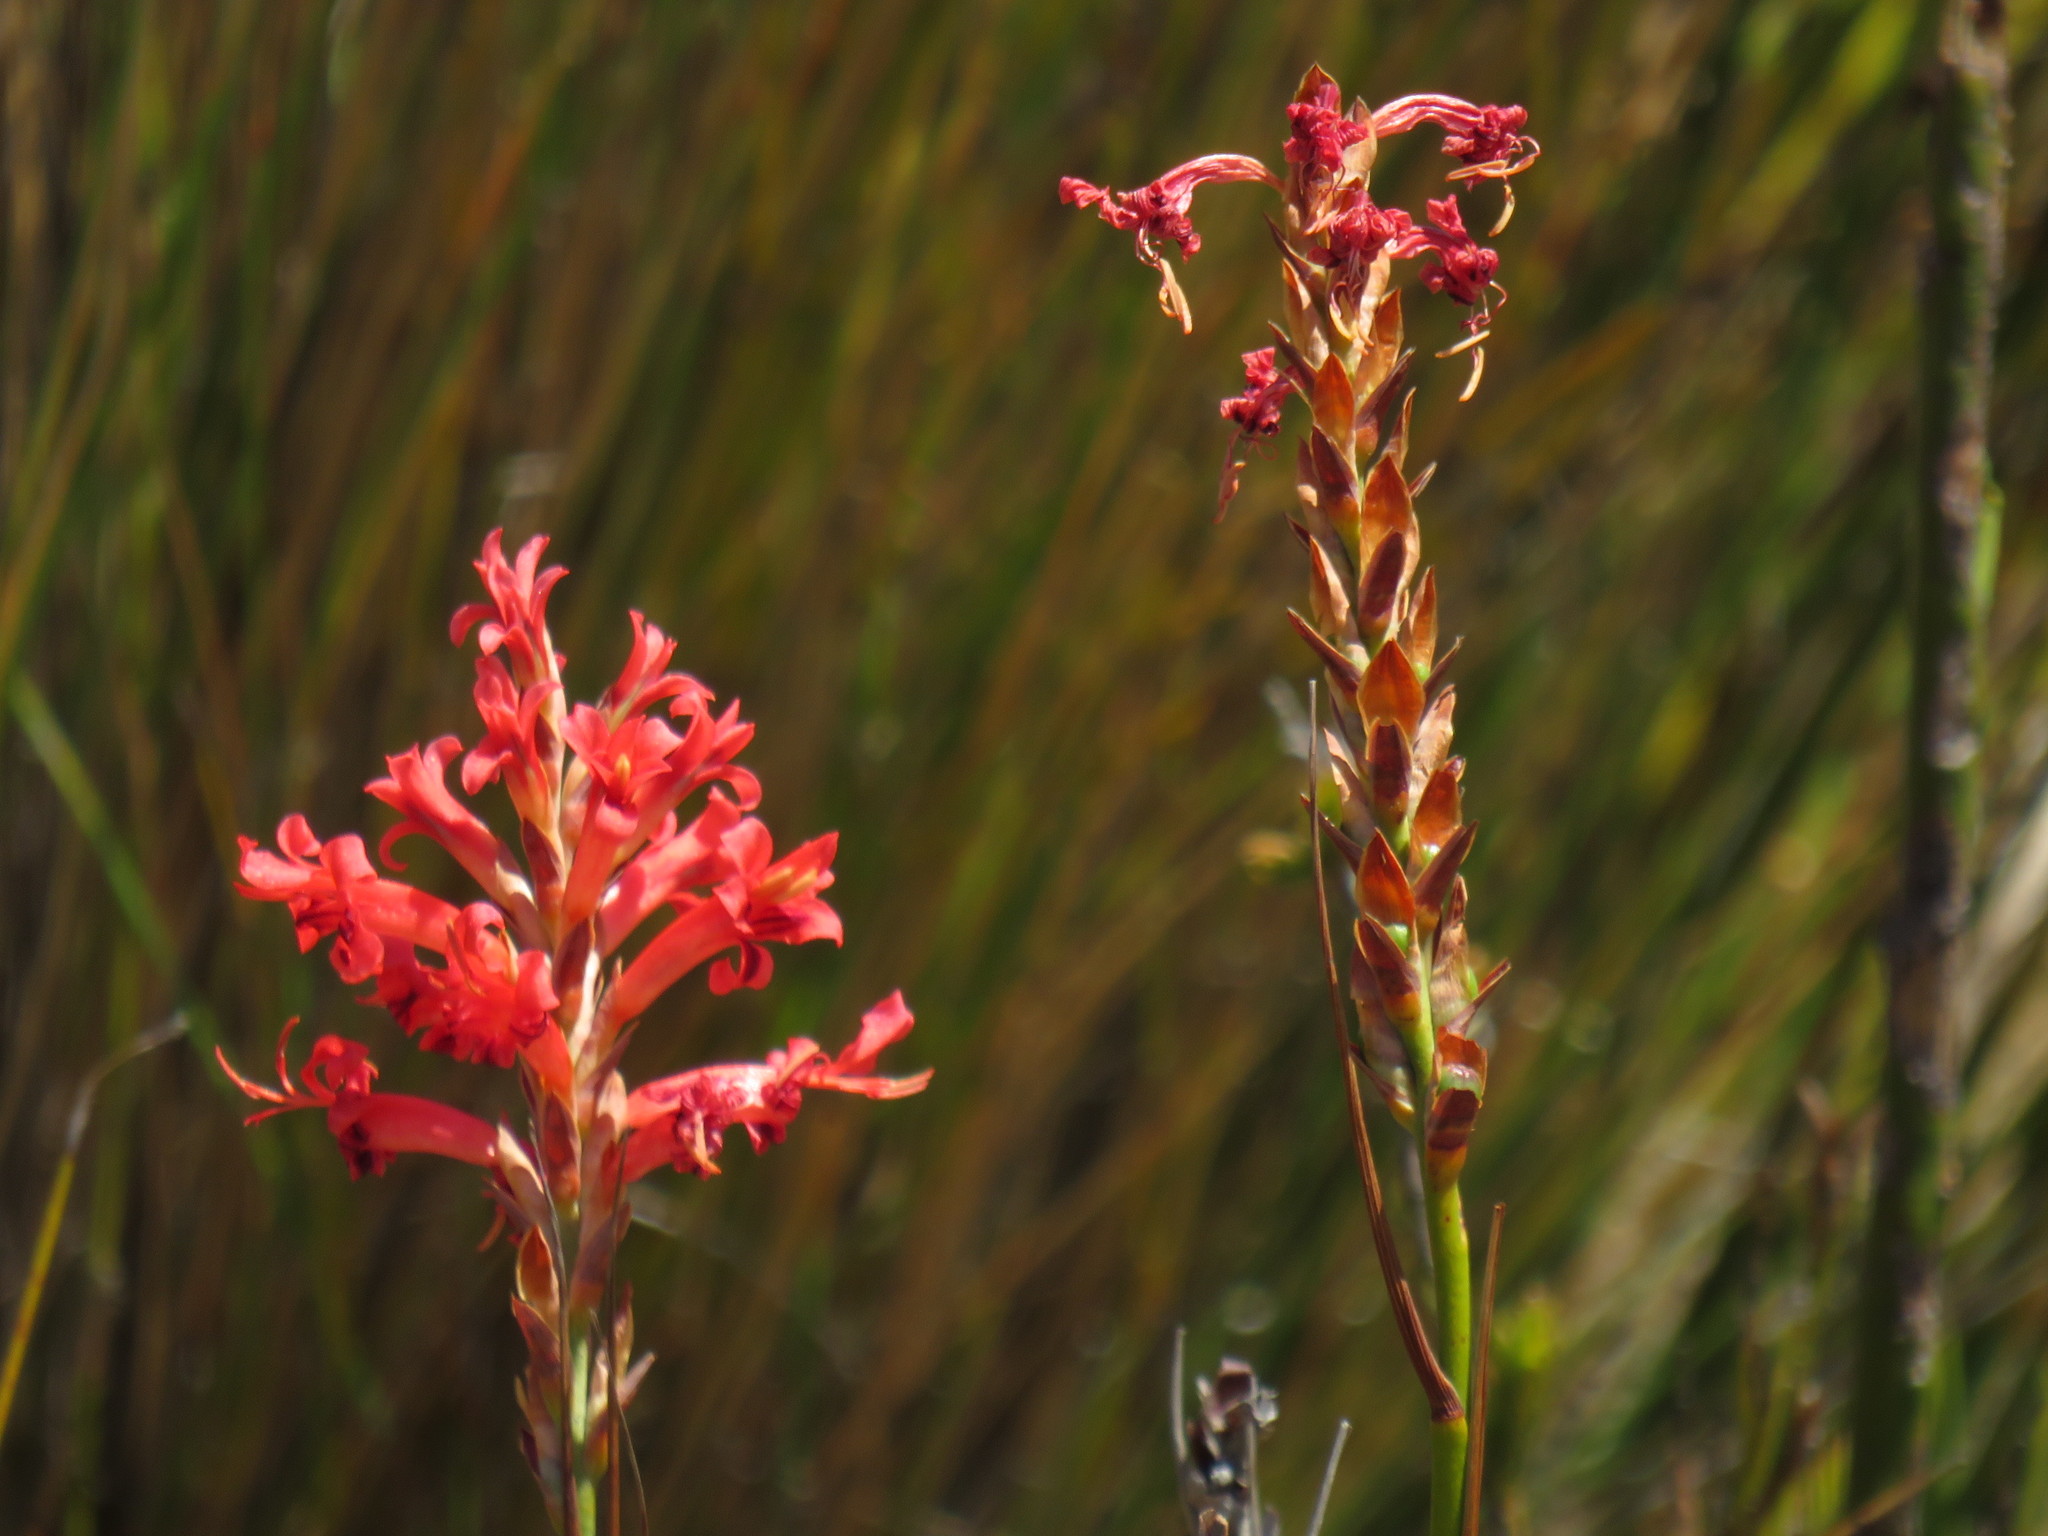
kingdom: Plantae
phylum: Tracheophyta
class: Liliopsida
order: Asparagales
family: Iridaceae
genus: Tritoniopsis
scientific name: Tritoniopsis triticea
